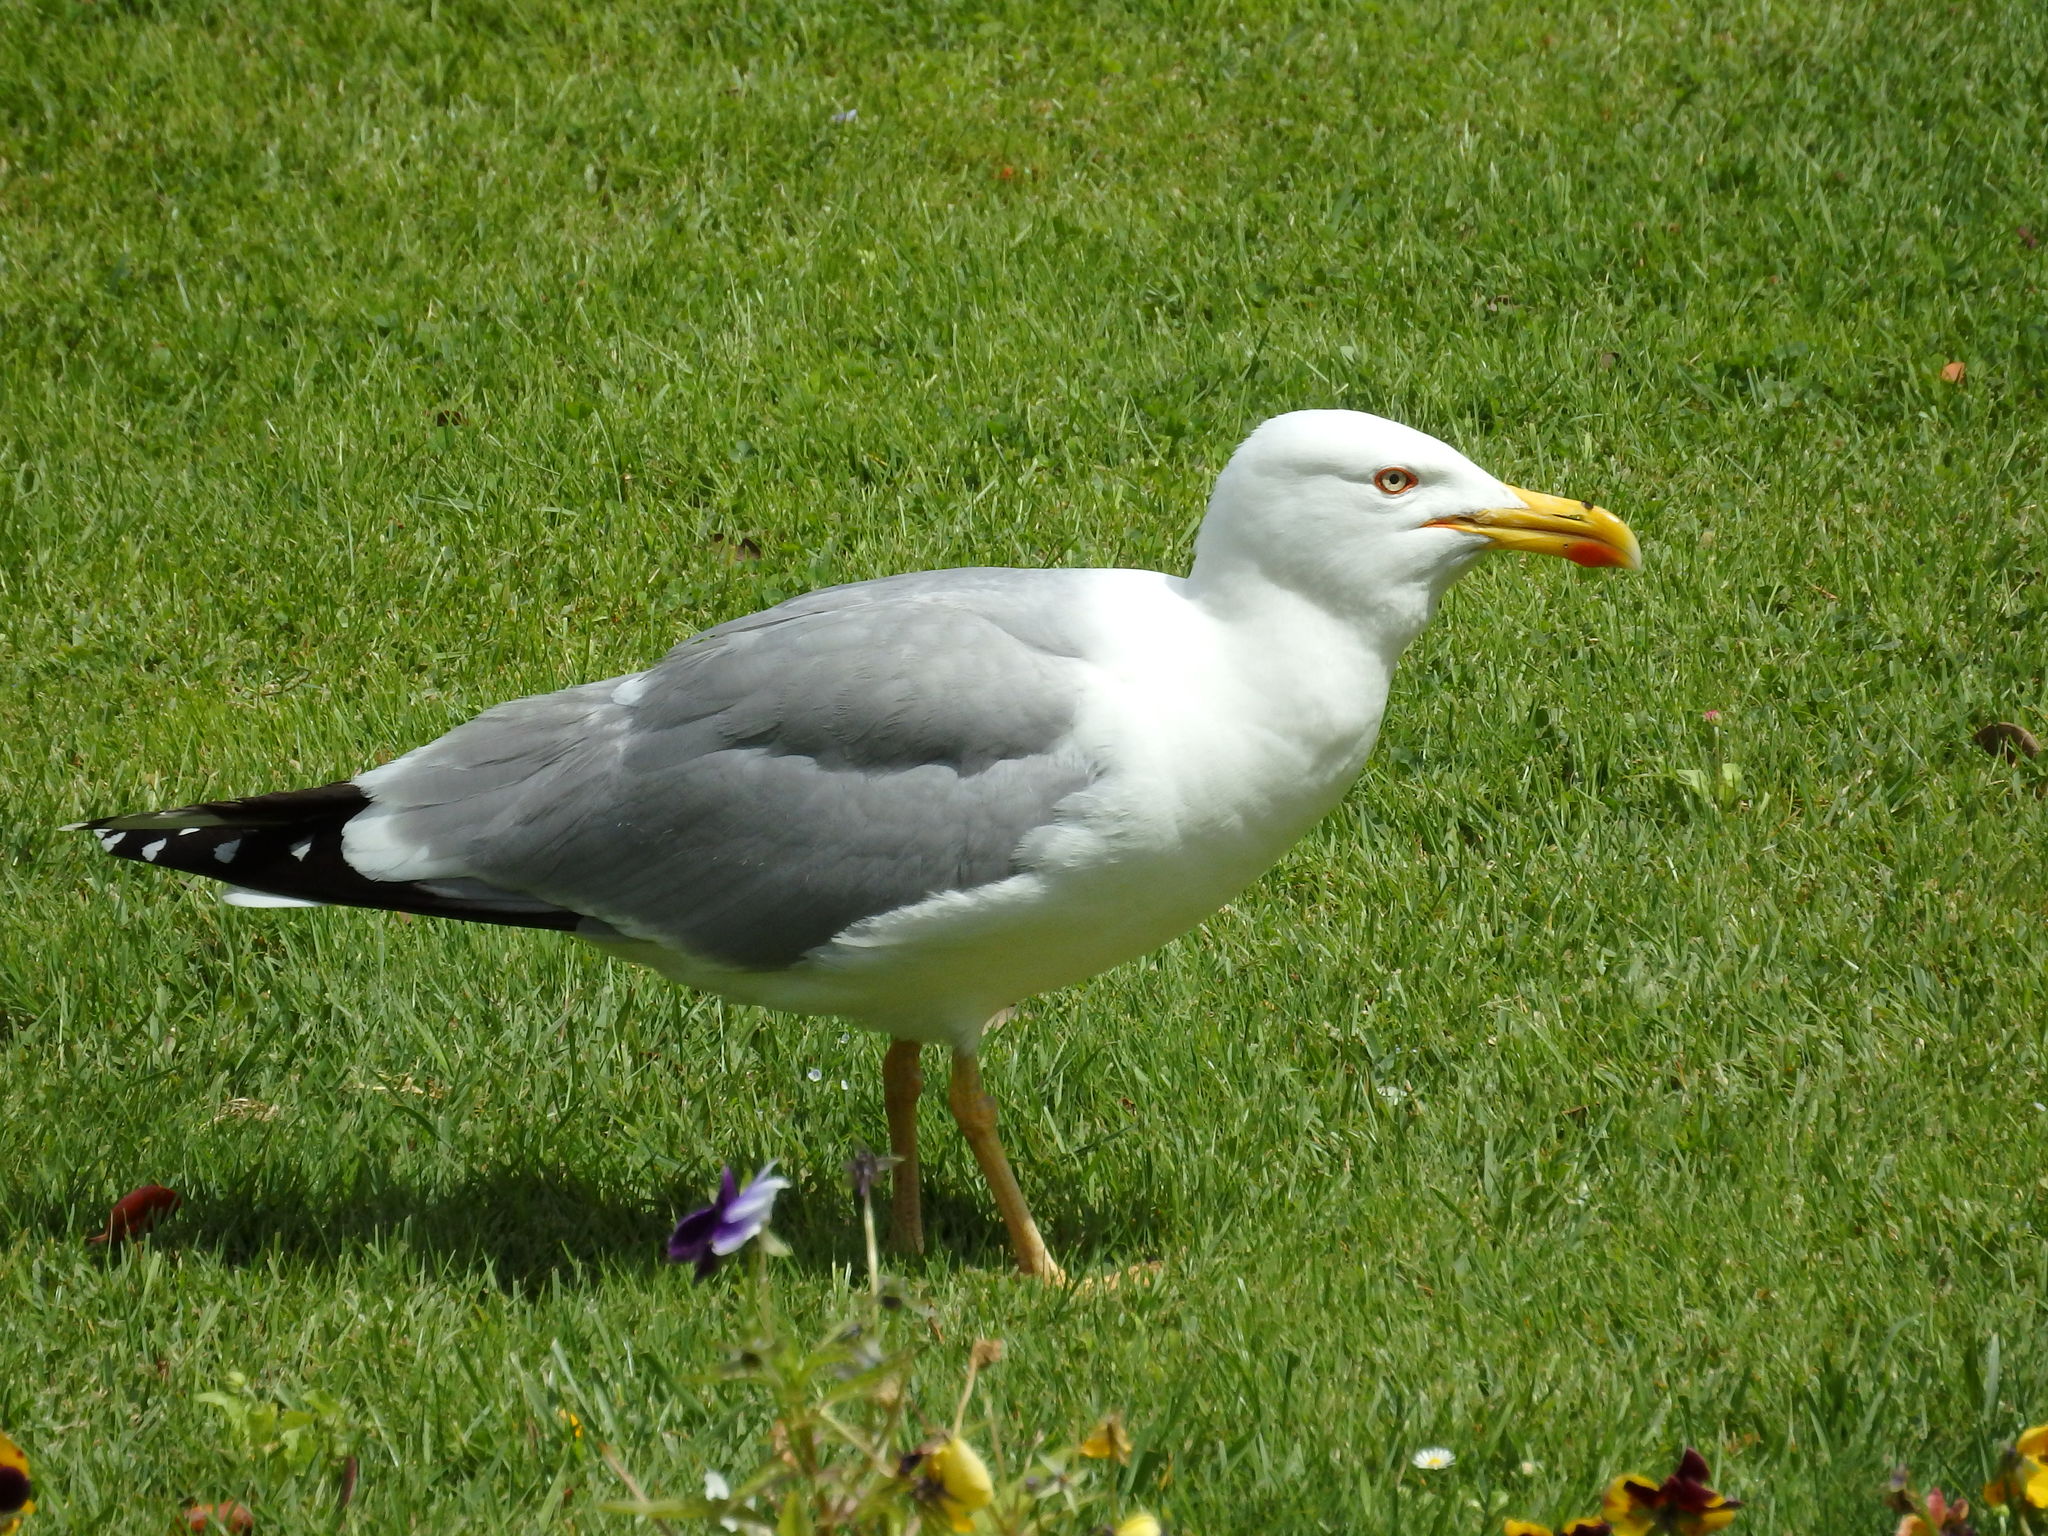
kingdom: Animalia
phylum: Chordata
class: Aves
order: Charadriiformes
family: Laridae
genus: Larus
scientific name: Larus michahellis
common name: Yellow-legged gull
